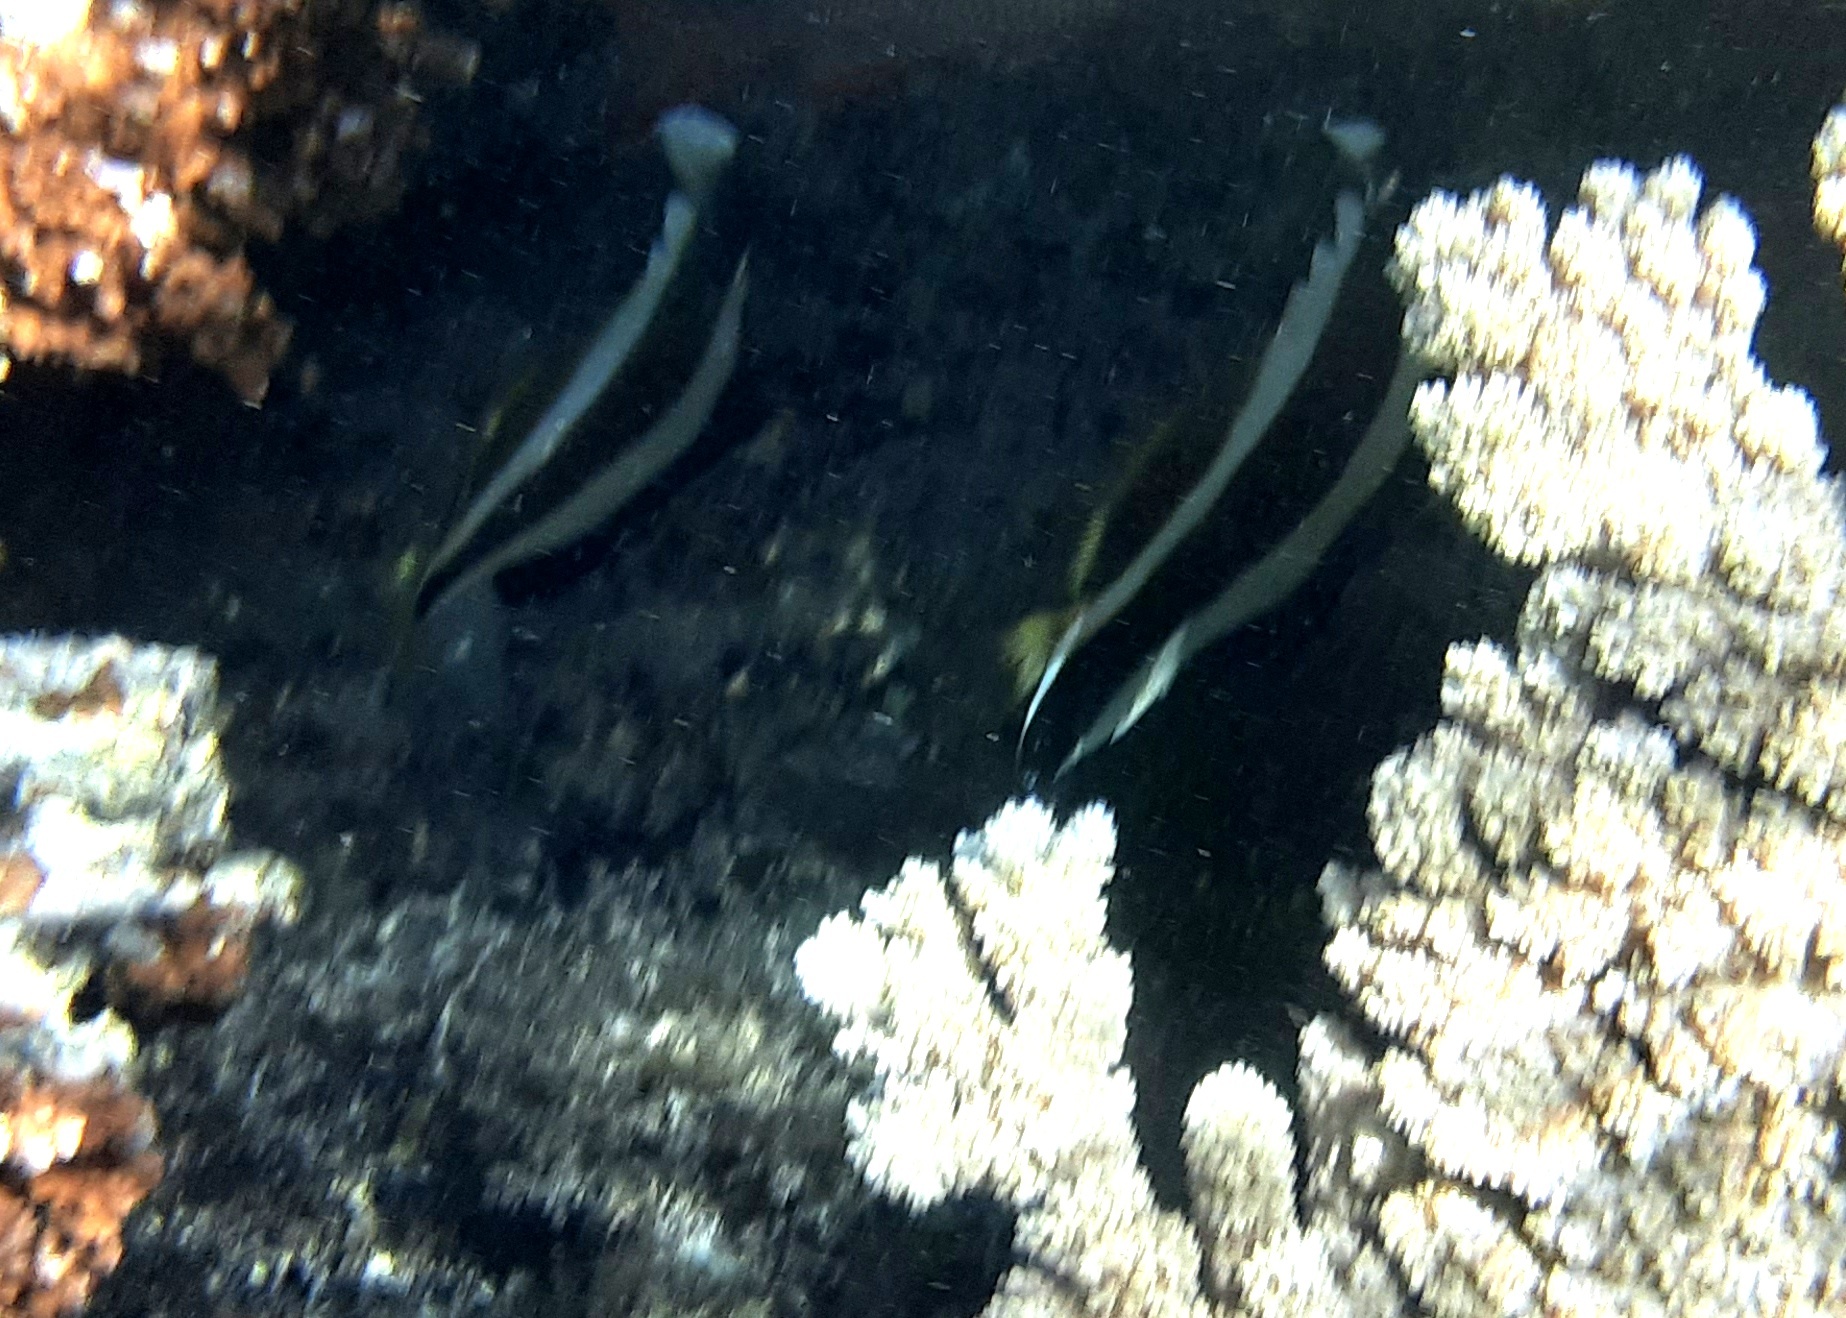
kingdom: Animalia
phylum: Chordata
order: Perciformes
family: Chaetodontidae
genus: Heniochus
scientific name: Heniochus chrysostomus
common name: Horned bannerfish
